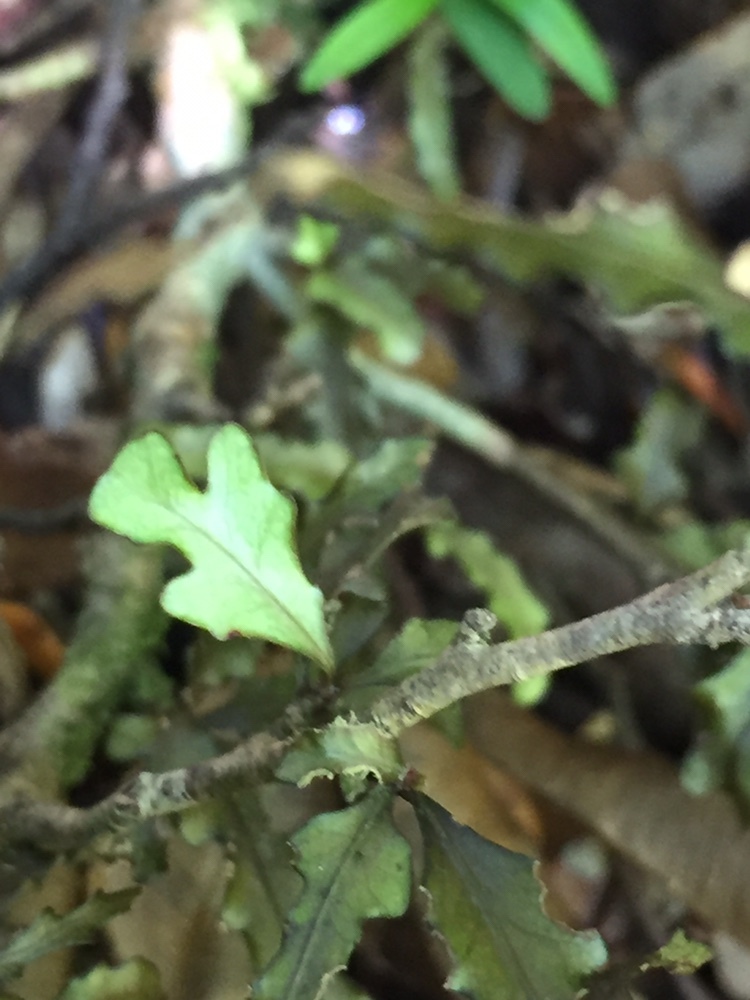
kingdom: Plantae
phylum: Tracheophyta
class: Magnoliopsida
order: Oxalidales
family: Elaeocarpaceae
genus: Elaeocarpus
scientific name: Elaeocarpus hookerianus
